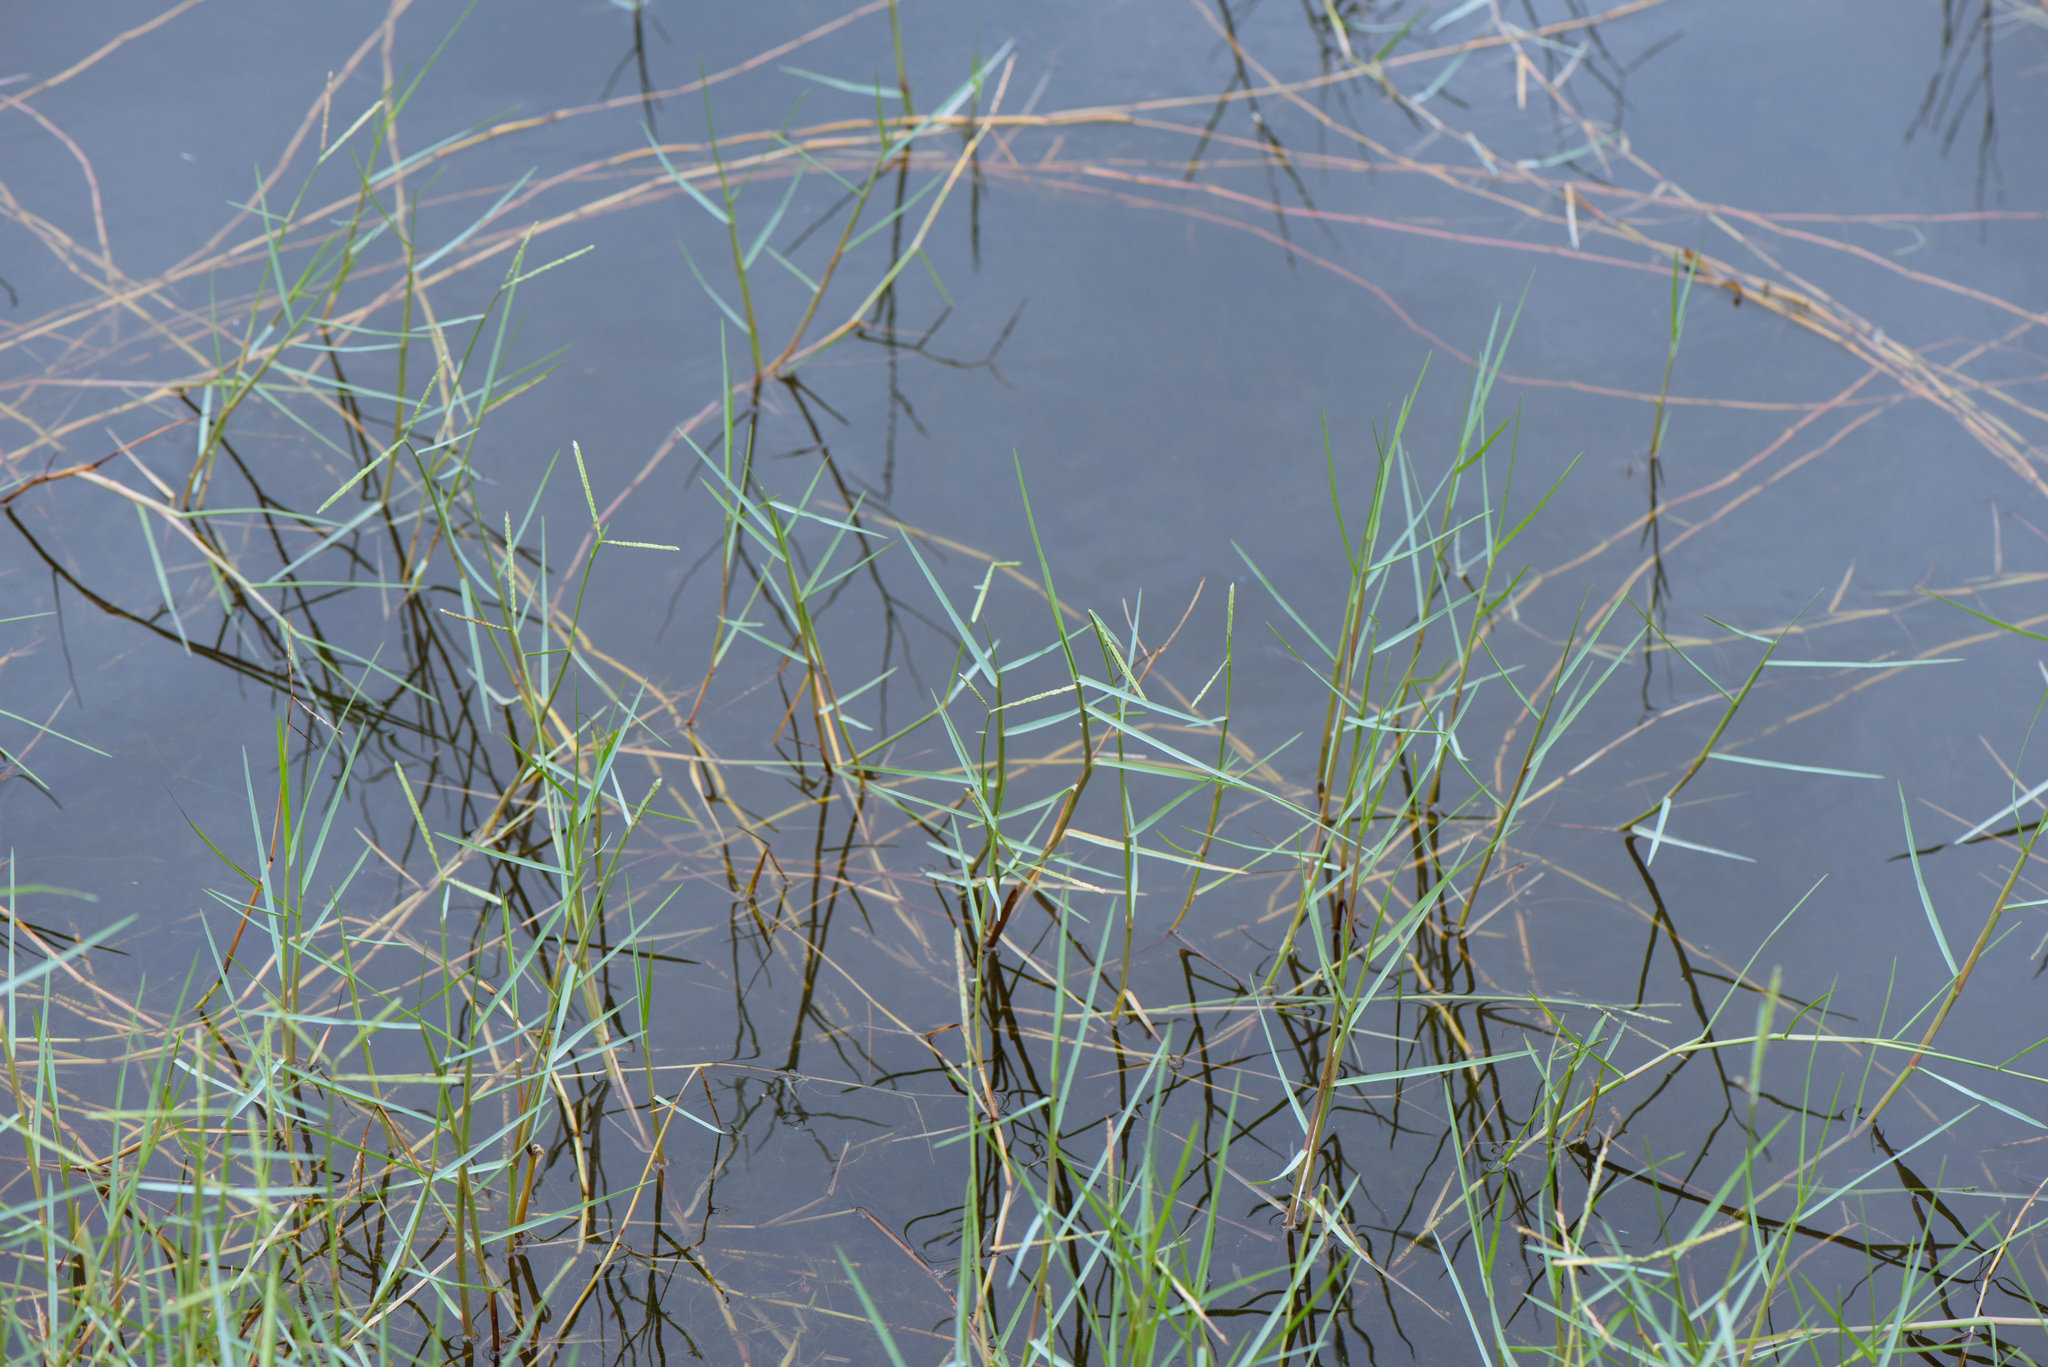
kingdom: Plantae
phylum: Tracheophyta
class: Liliopsida
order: Poales
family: Poaceae
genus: Paspalum
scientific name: Paspalum vaginatum
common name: Seashore paspalum
